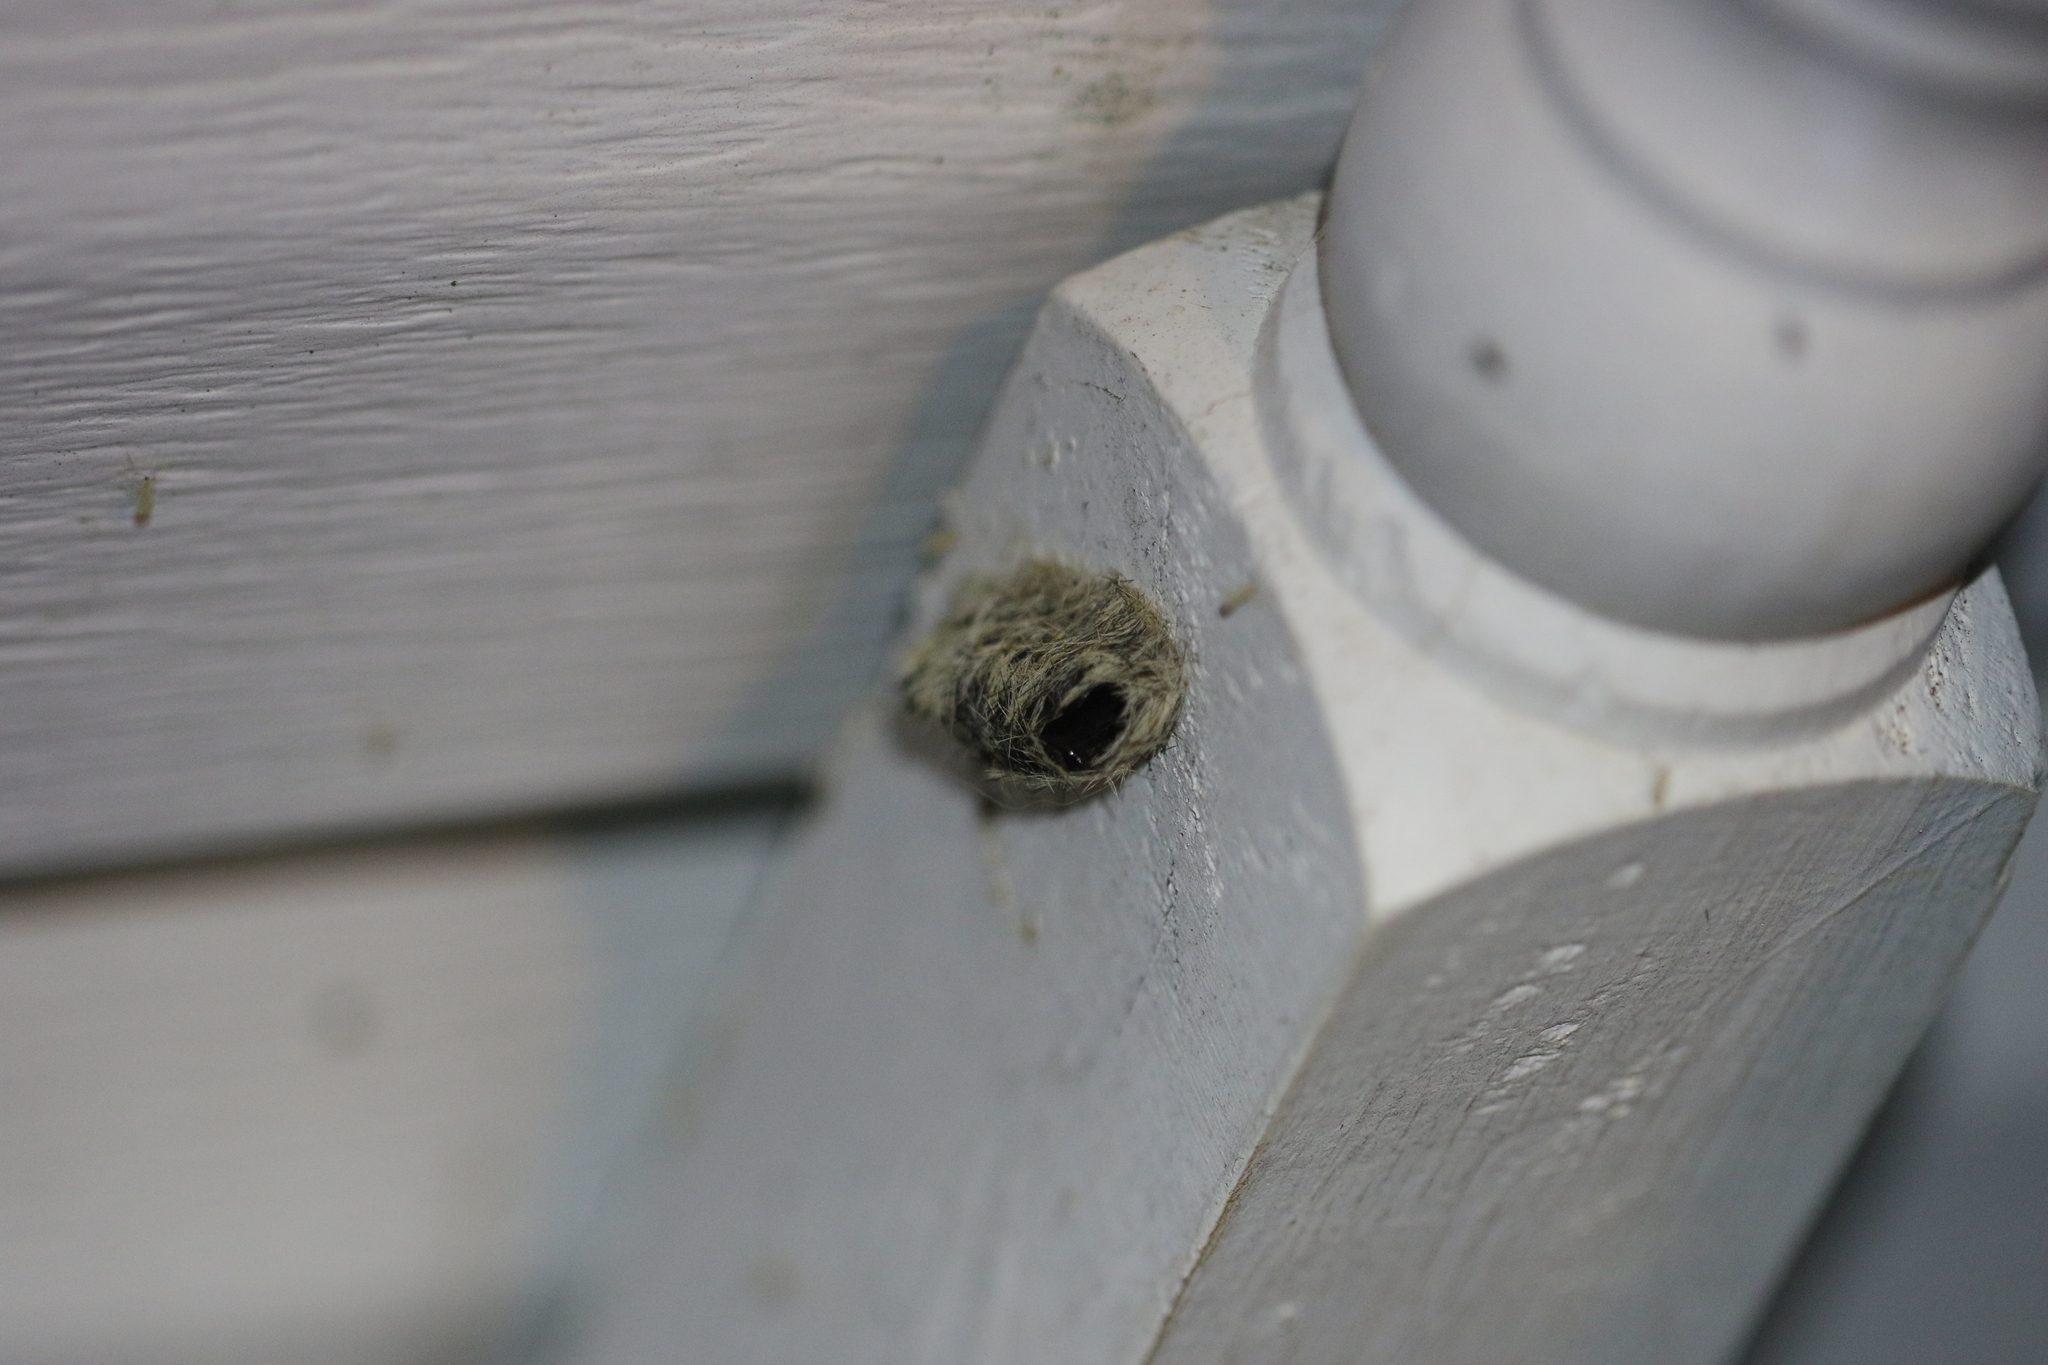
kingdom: Animalia
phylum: Arthropoda
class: Insecta
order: Lepidoptera
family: Erebidae
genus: Ctenucha
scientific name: Ctenucha virginica
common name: Virginia ctenucha moth
